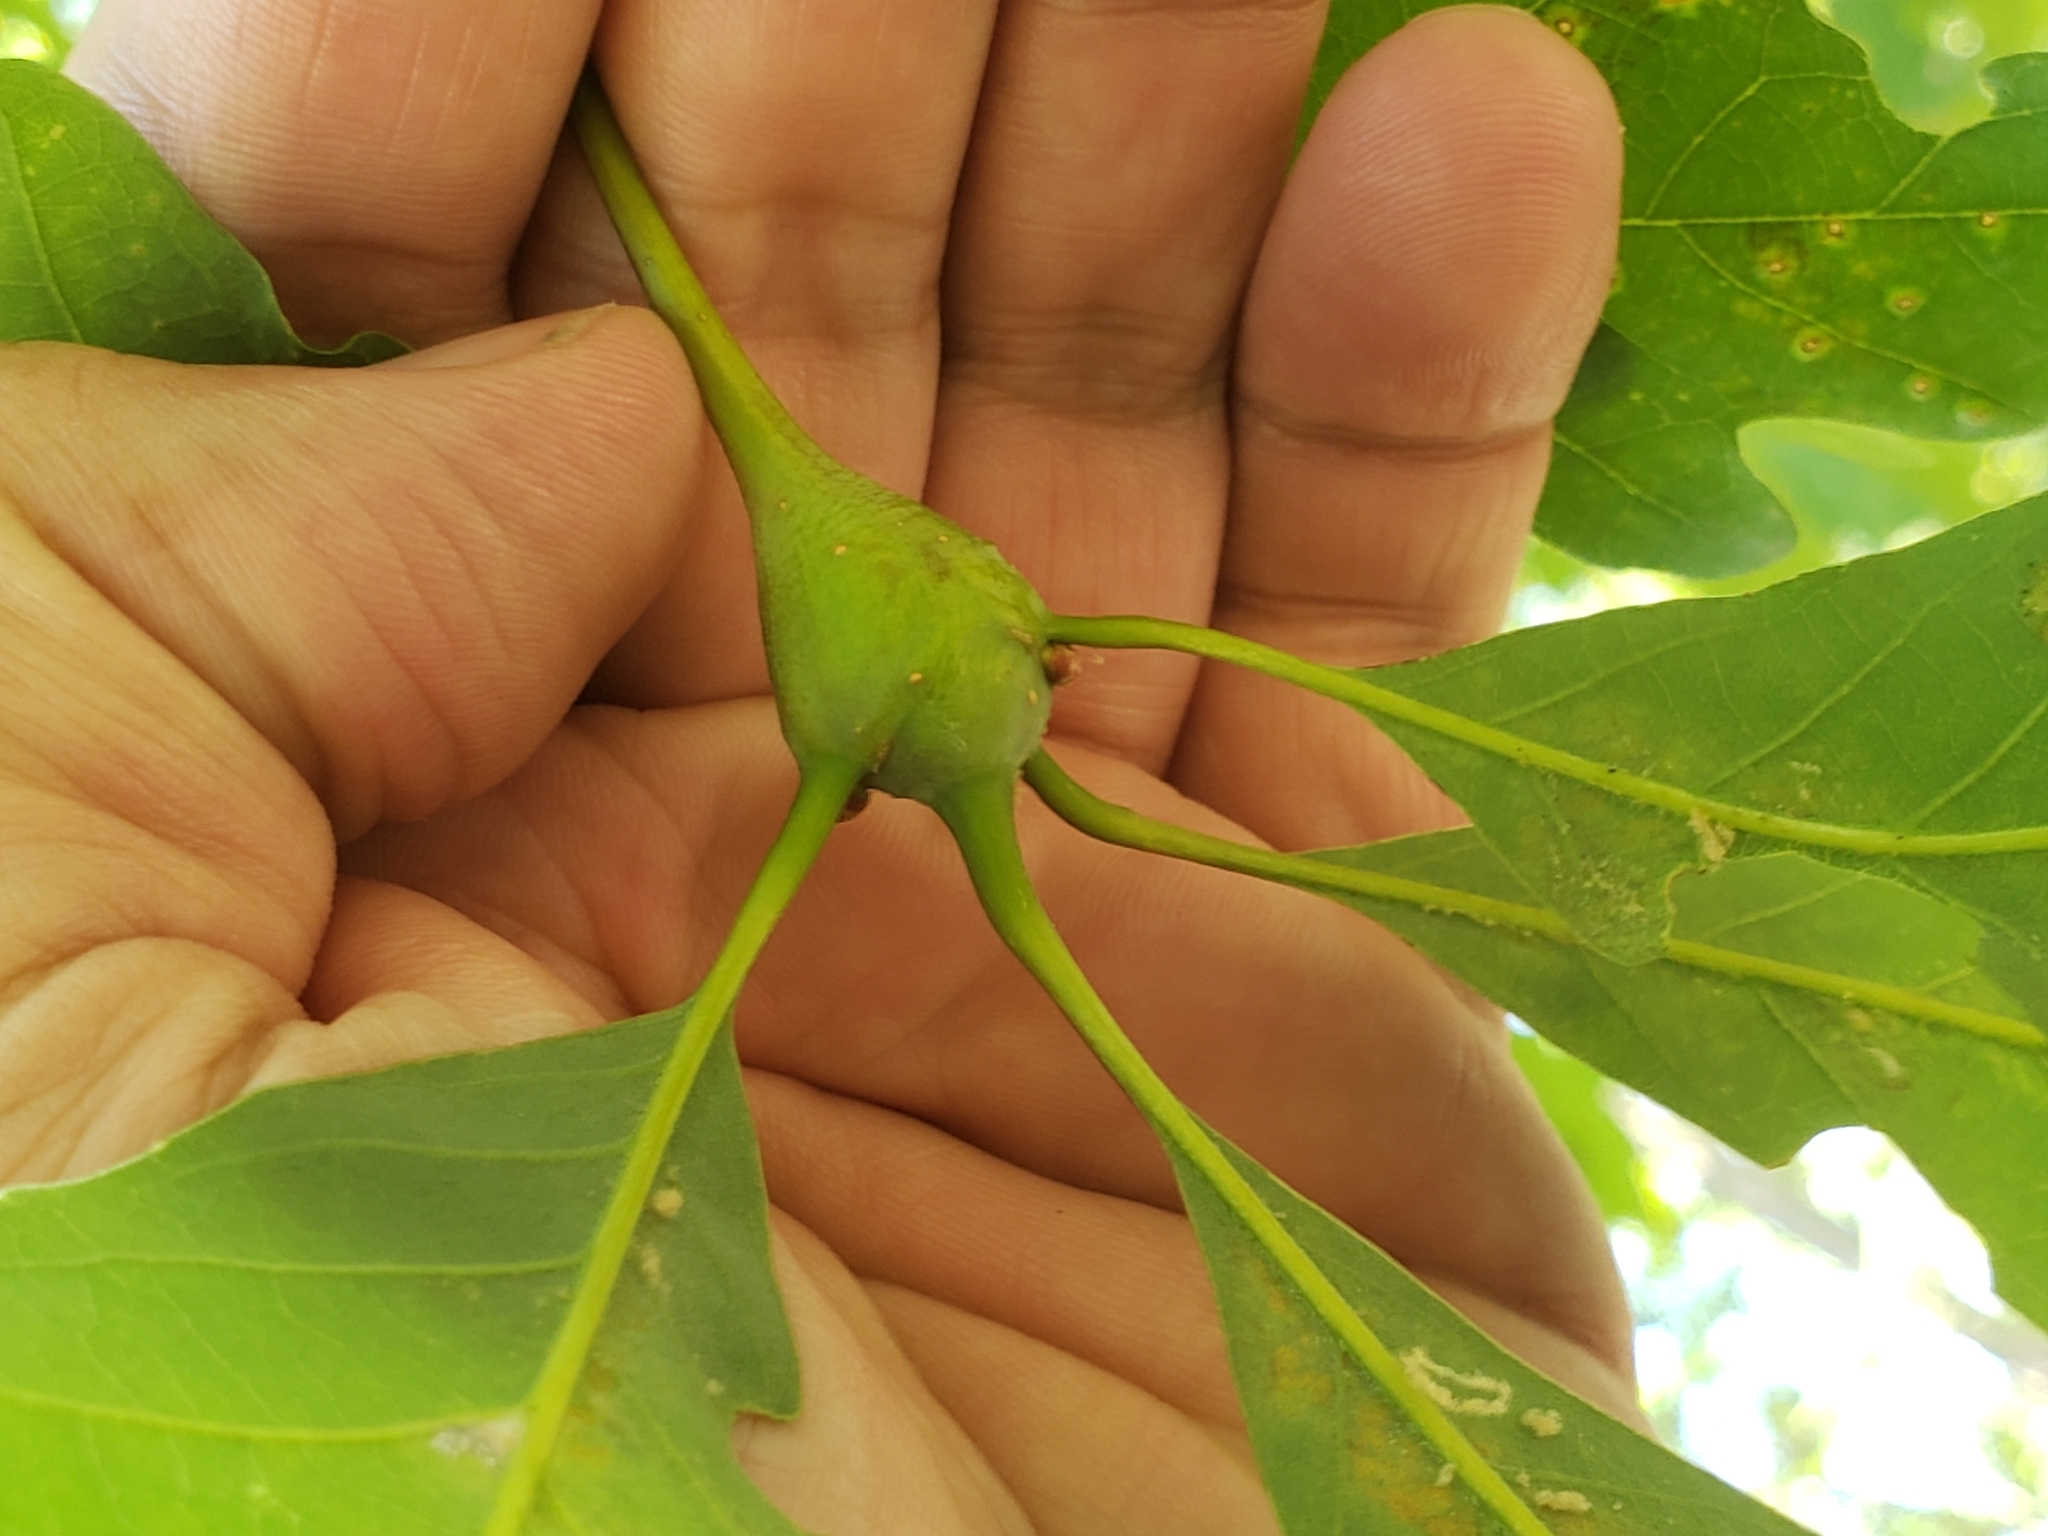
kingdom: Animalia
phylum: Arthropoda
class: Insecta
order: Hymenoptera
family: Cynipidae
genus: Callirhytis
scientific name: Callirhytis clavula
